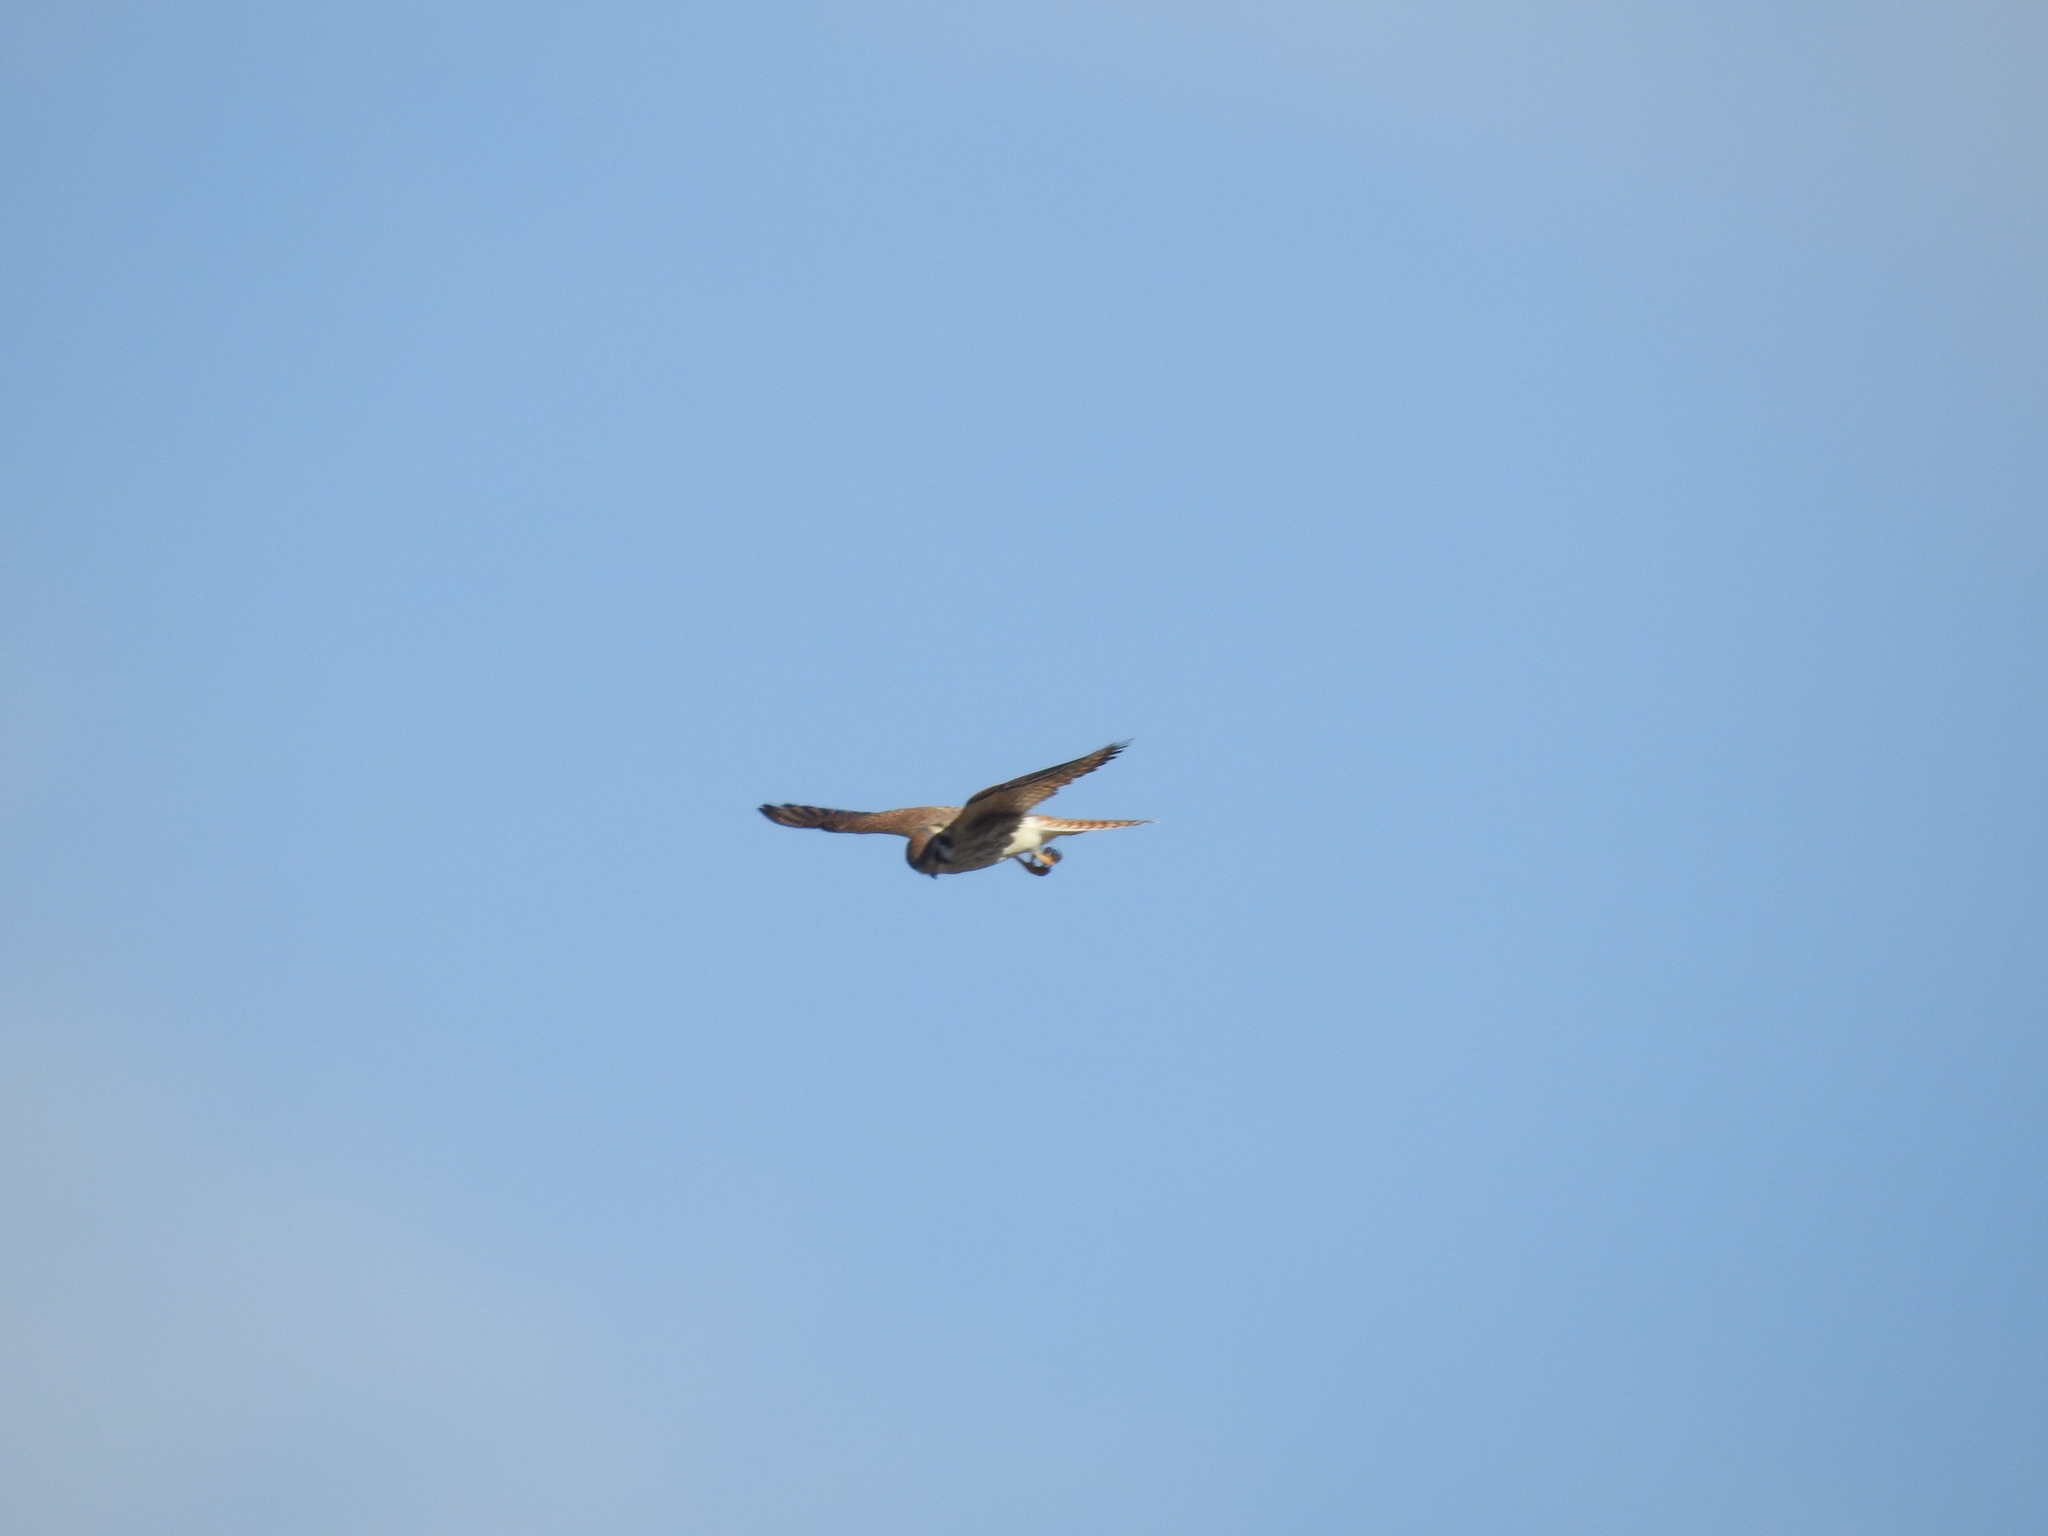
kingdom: Animalia
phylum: Chordata
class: Aves
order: Falconiformes
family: Falconidae
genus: Falco
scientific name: Falco sparverius
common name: American kestrel
